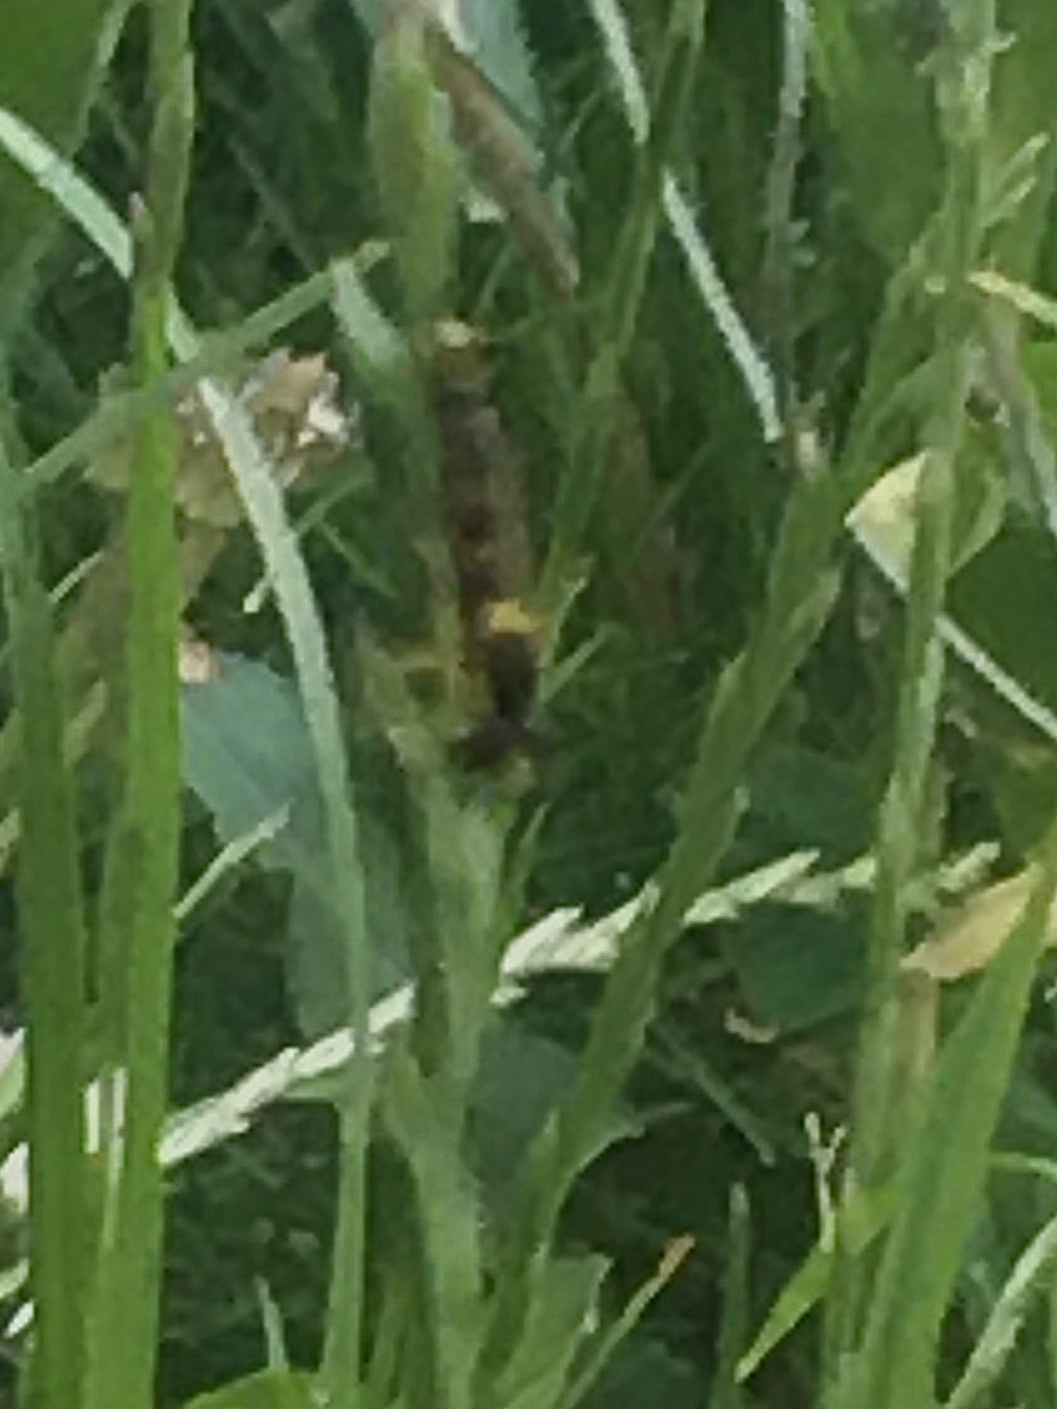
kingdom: Animalia
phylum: Arthropoda
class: Insecta
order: Diptera
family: Syrphidae
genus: Sphaerophoria
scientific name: Sphaerophoria scripta
